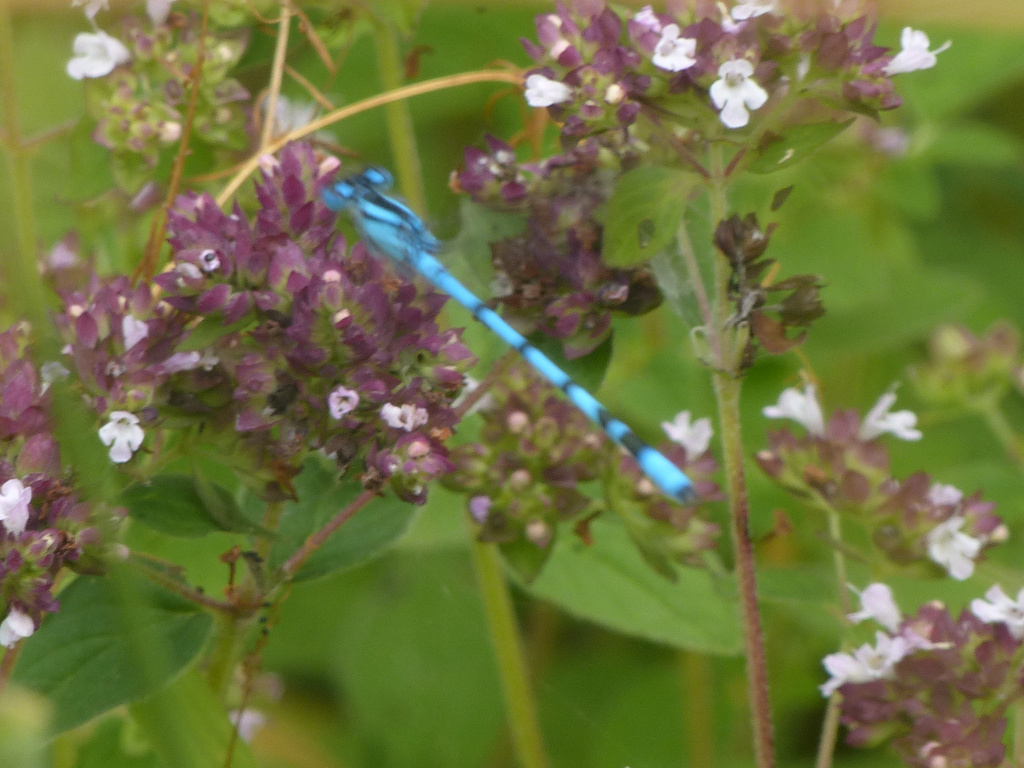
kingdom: Animalia
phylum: Arthropoda
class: Insecta
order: Odonata
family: Coenagrionidae
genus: Enallagma
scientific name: Enallagma cyathigerum
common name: Common blue damselfly
